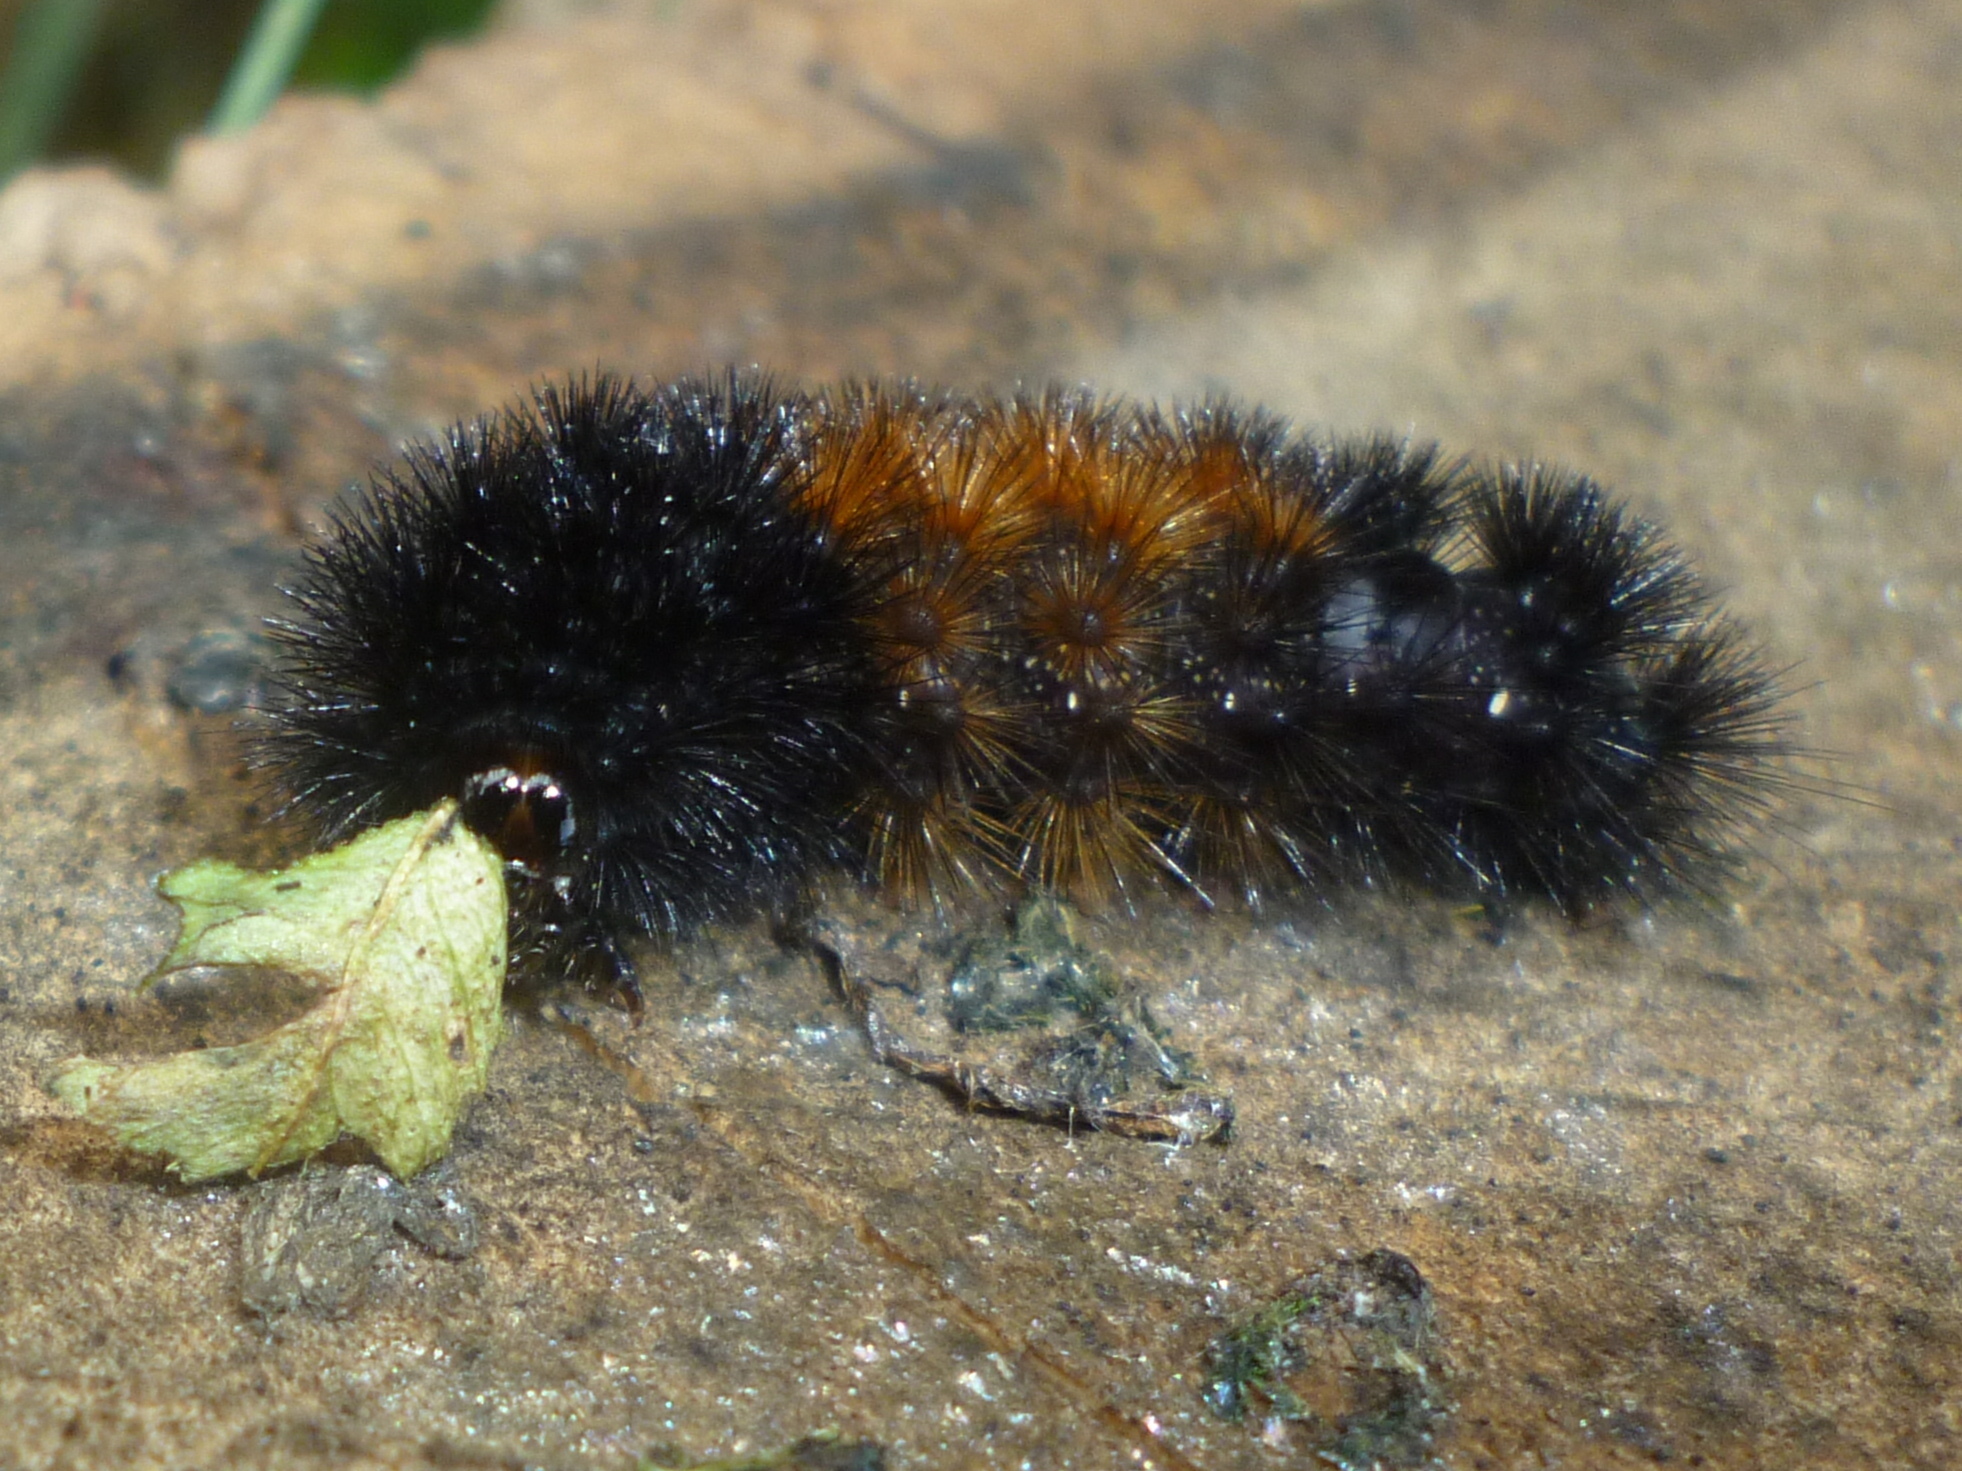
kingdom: Animalia
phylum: Arthropoda
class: Insecta
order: Lepidoptera
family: Erebidae
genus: Pyrrharctia
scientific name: Pyrrharctia isabella
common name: Isabella tiger moth
